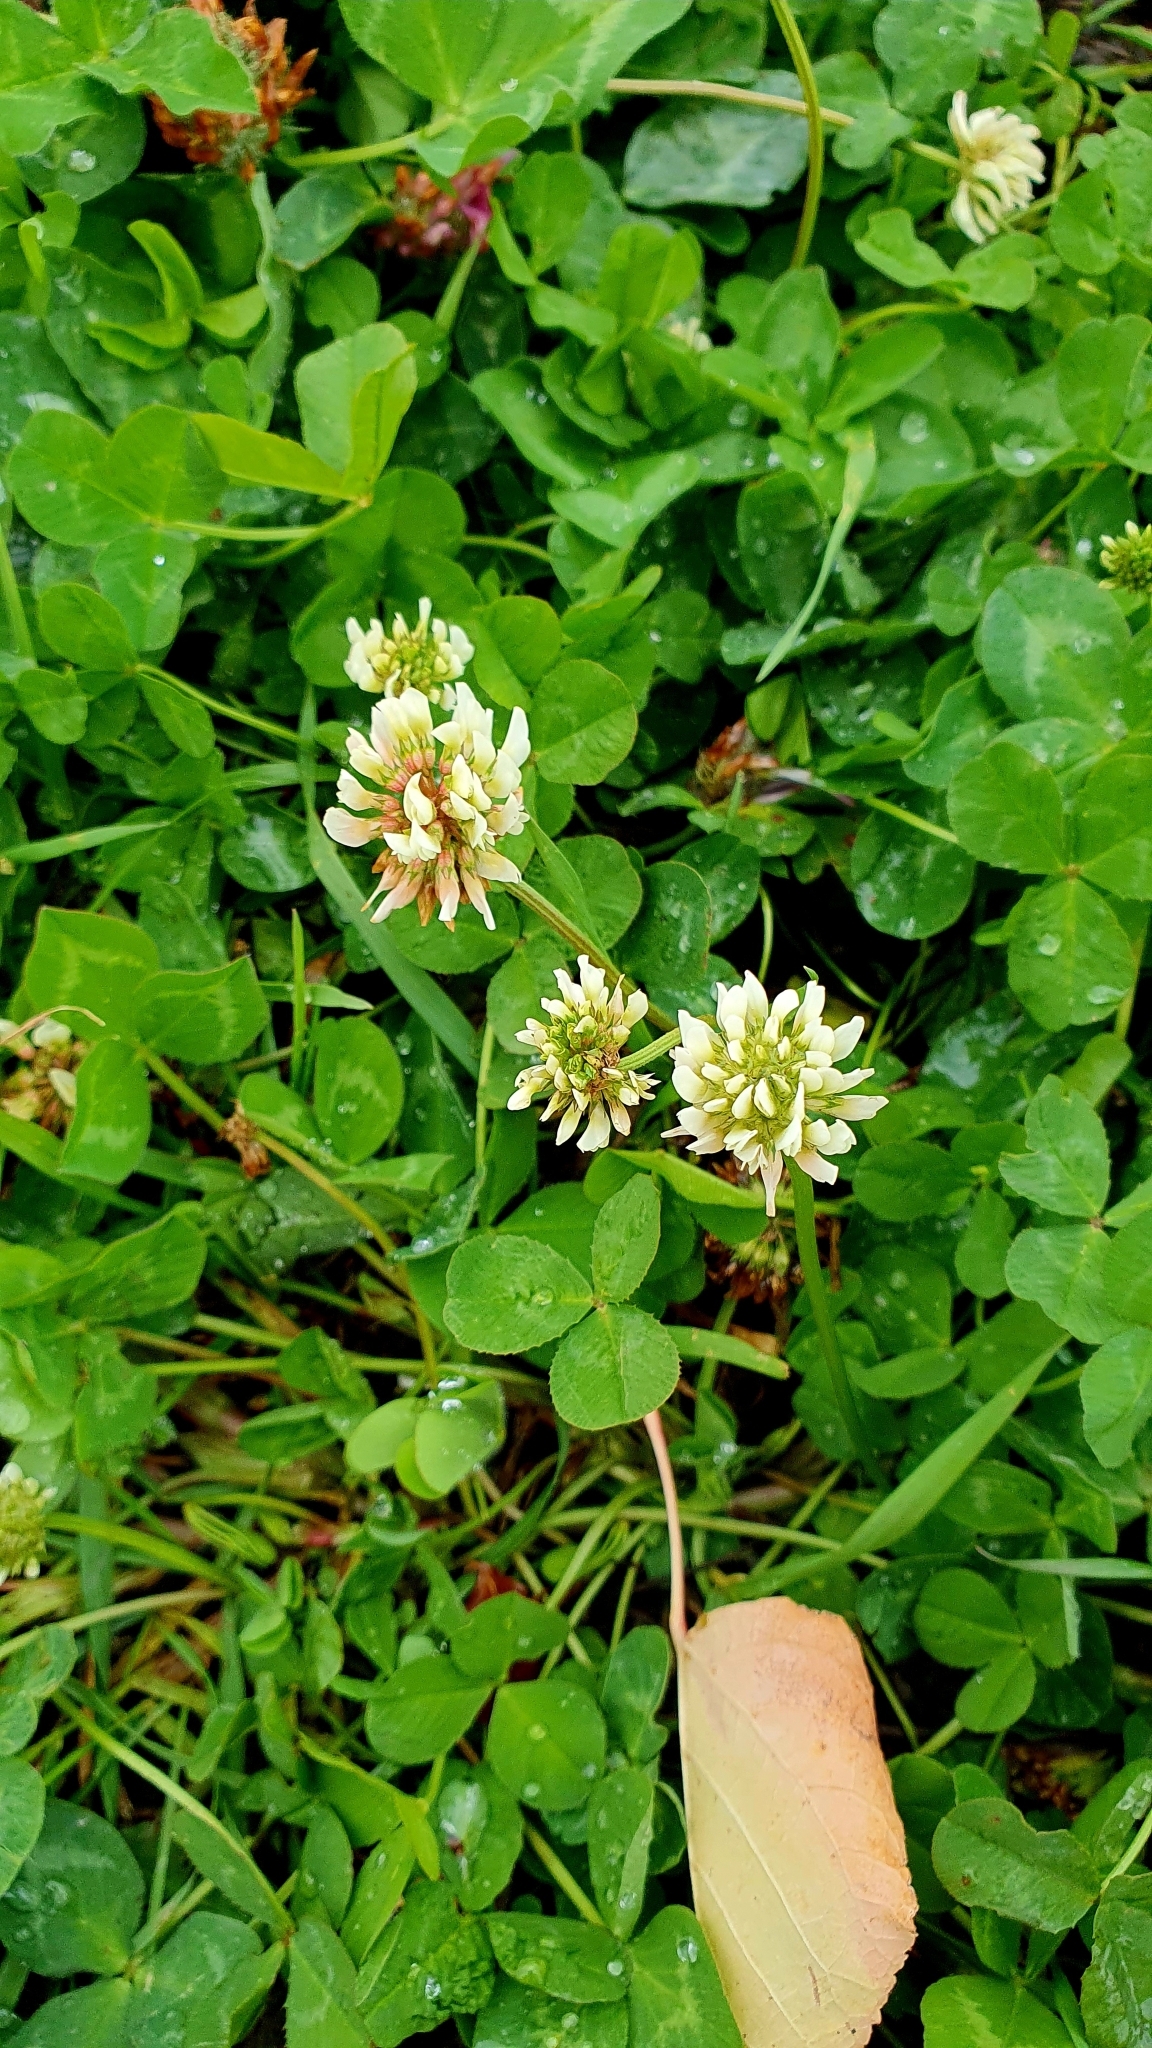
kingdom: Plantae
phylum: Tracheophyta
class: Magnoliopsida
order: Fabales
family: Fabaceae
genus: Trifolium
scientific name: Trifolium repens
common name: White clover
